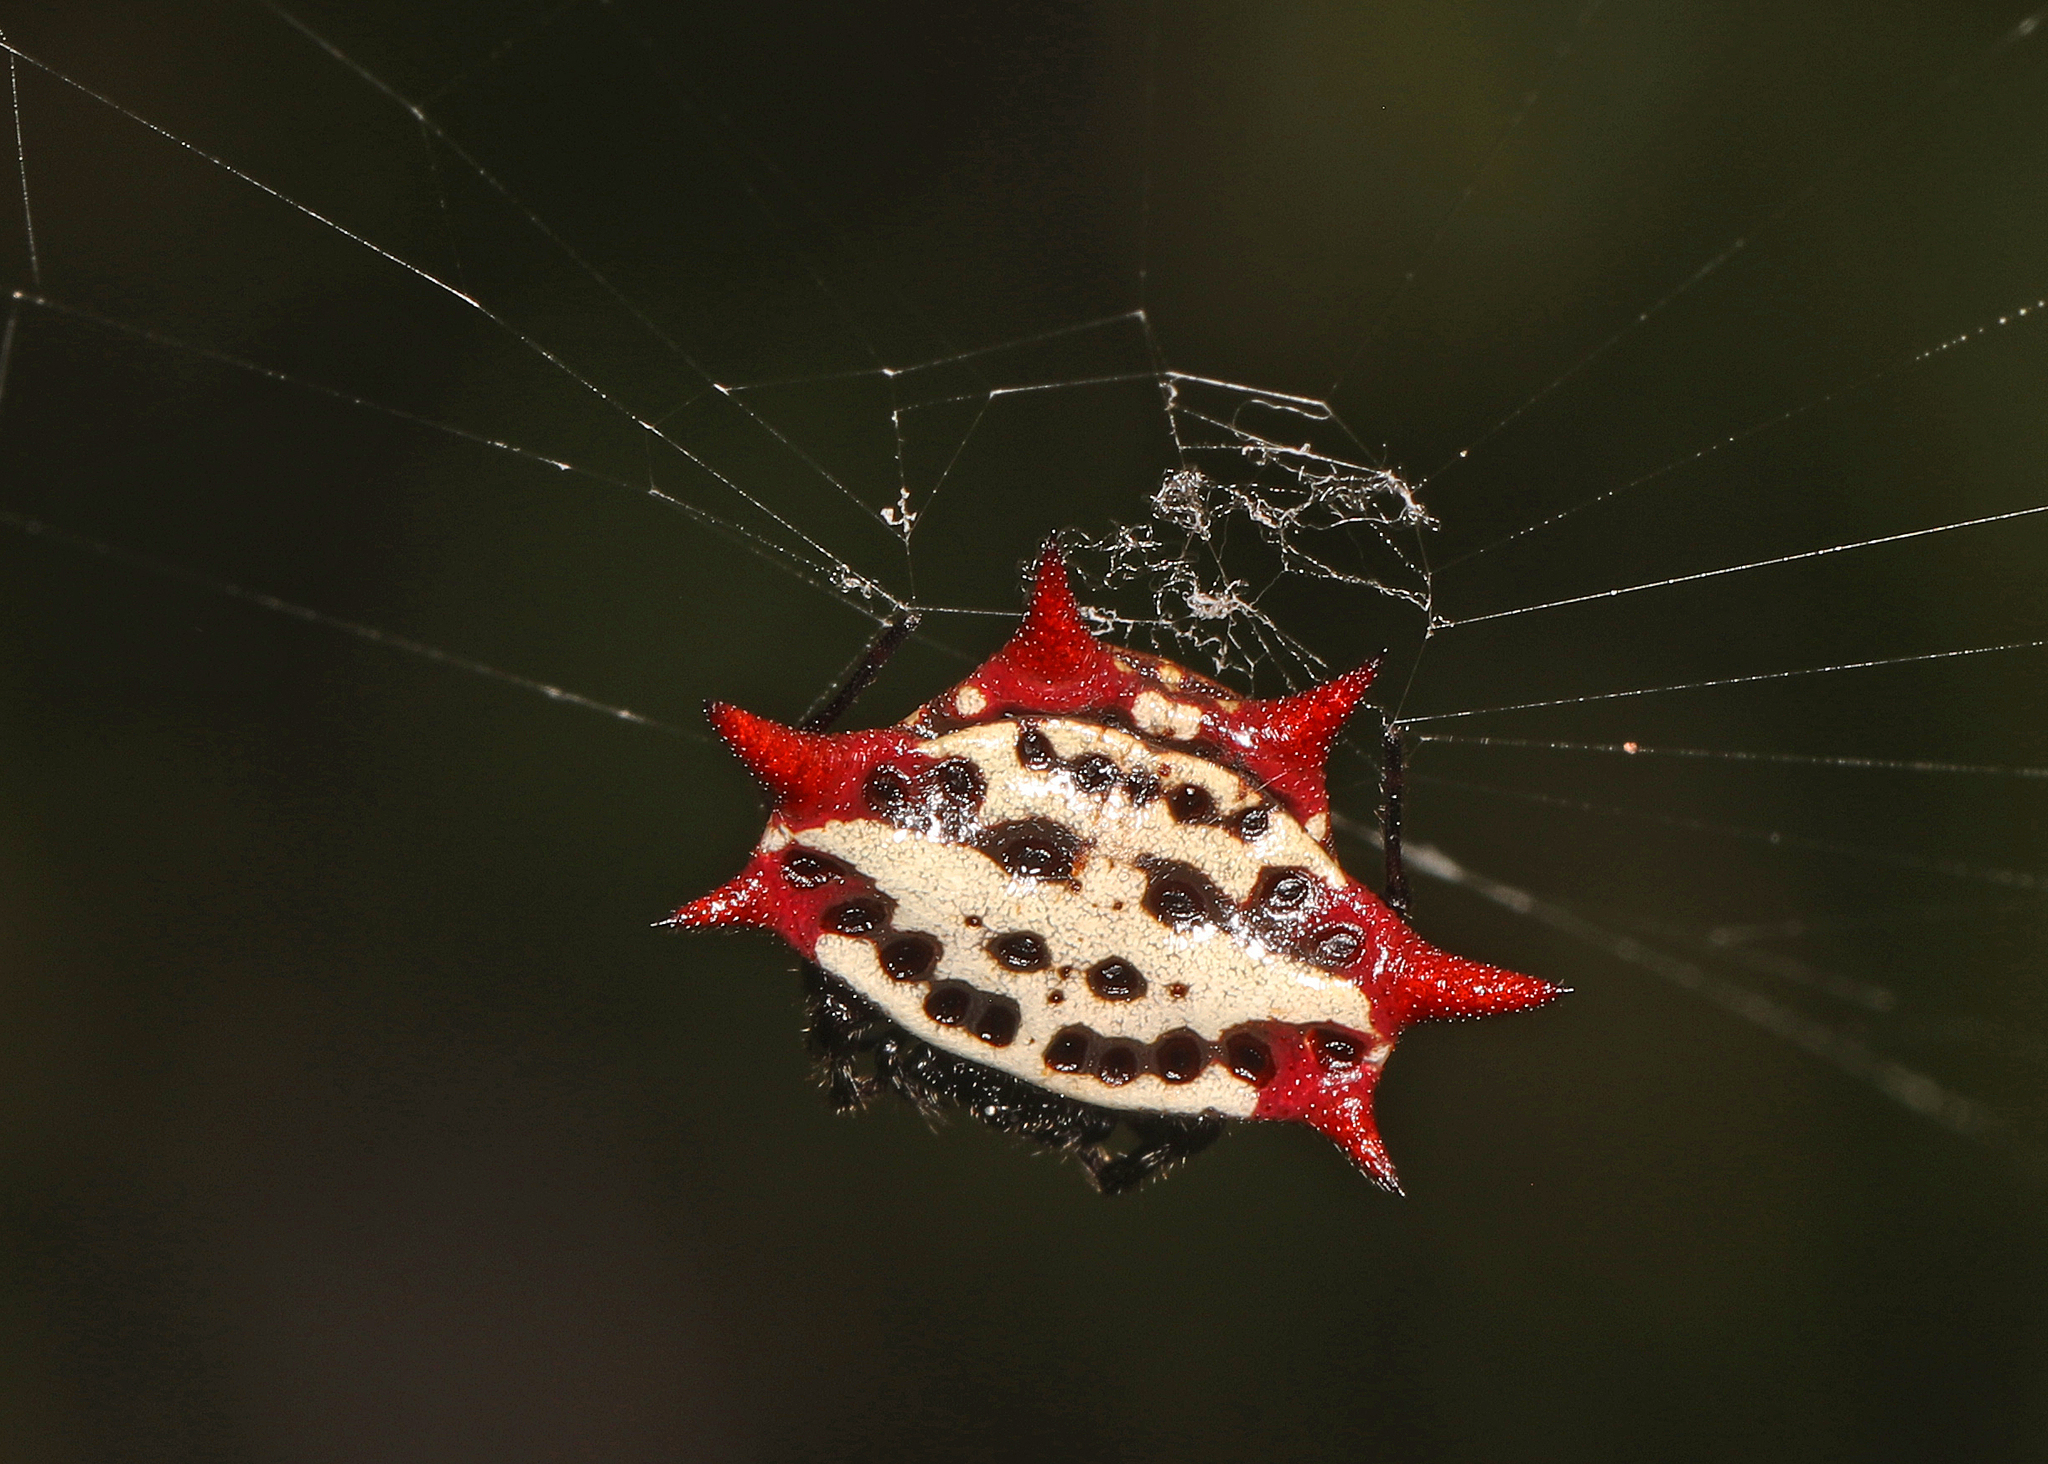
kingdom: Animalia
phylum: Arthropoda
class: Arachnida
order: Araneae
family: Araneidae
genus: Gasteracantha
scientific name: Gasteracantha cancriformis
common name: Orb weavers
